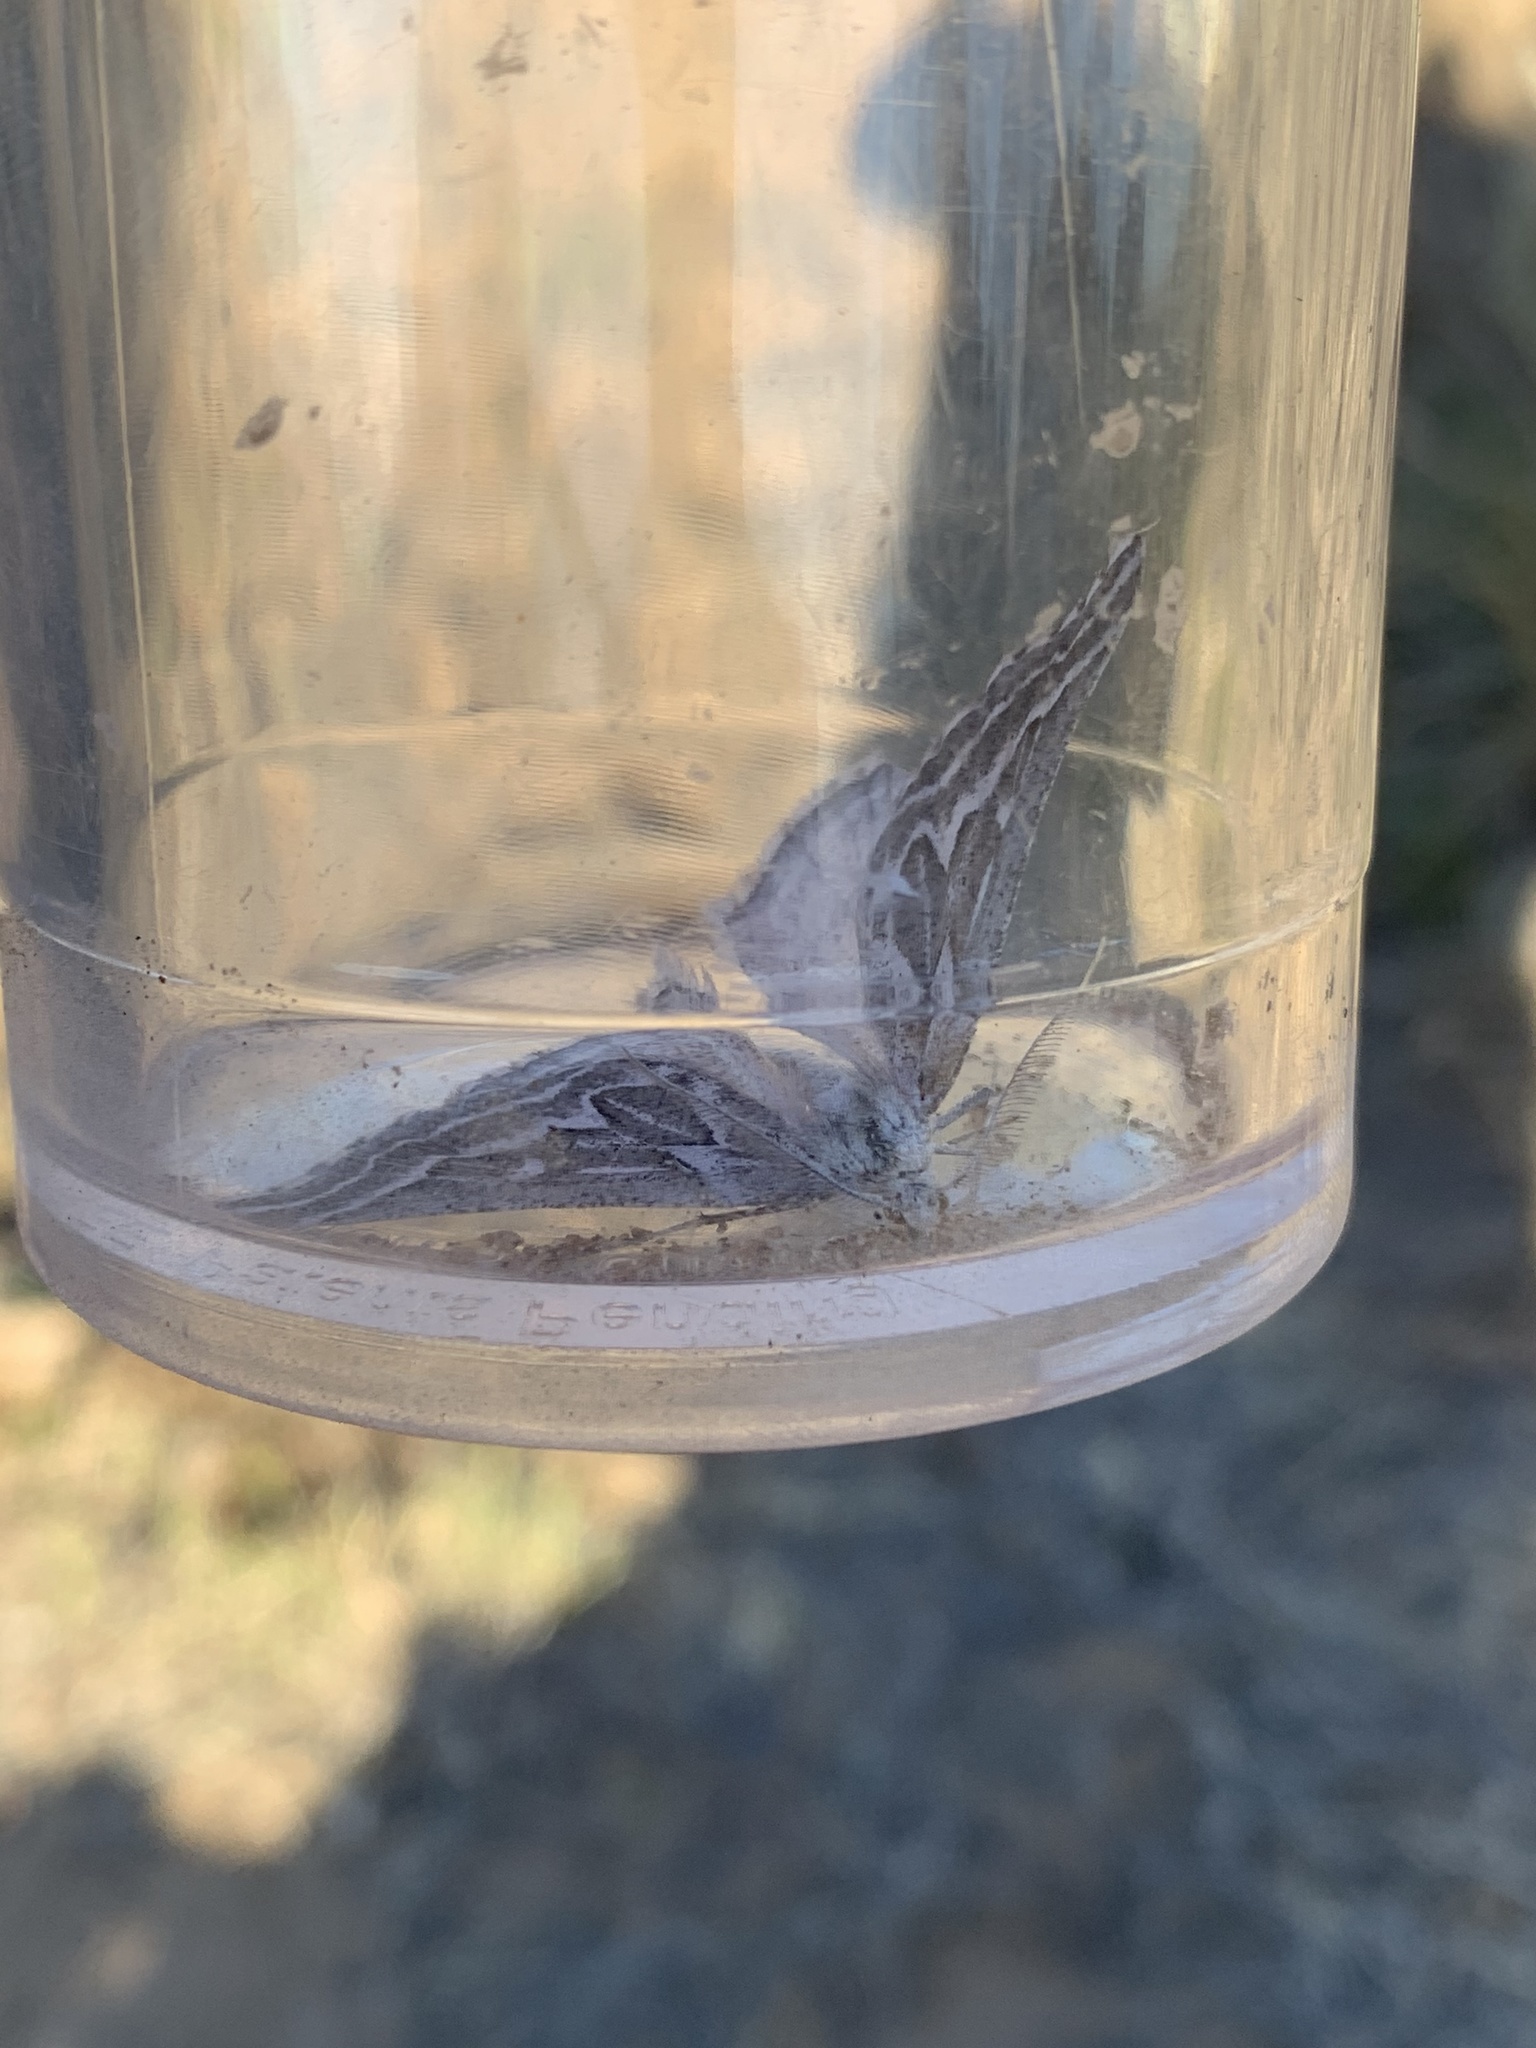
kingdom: Animalia
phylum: Arthropoda
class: Insecta
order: Lepidoptera
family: Geometridae
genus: Plataea
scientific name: Plataea trilinearia
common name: Sagebrush girdle moth
